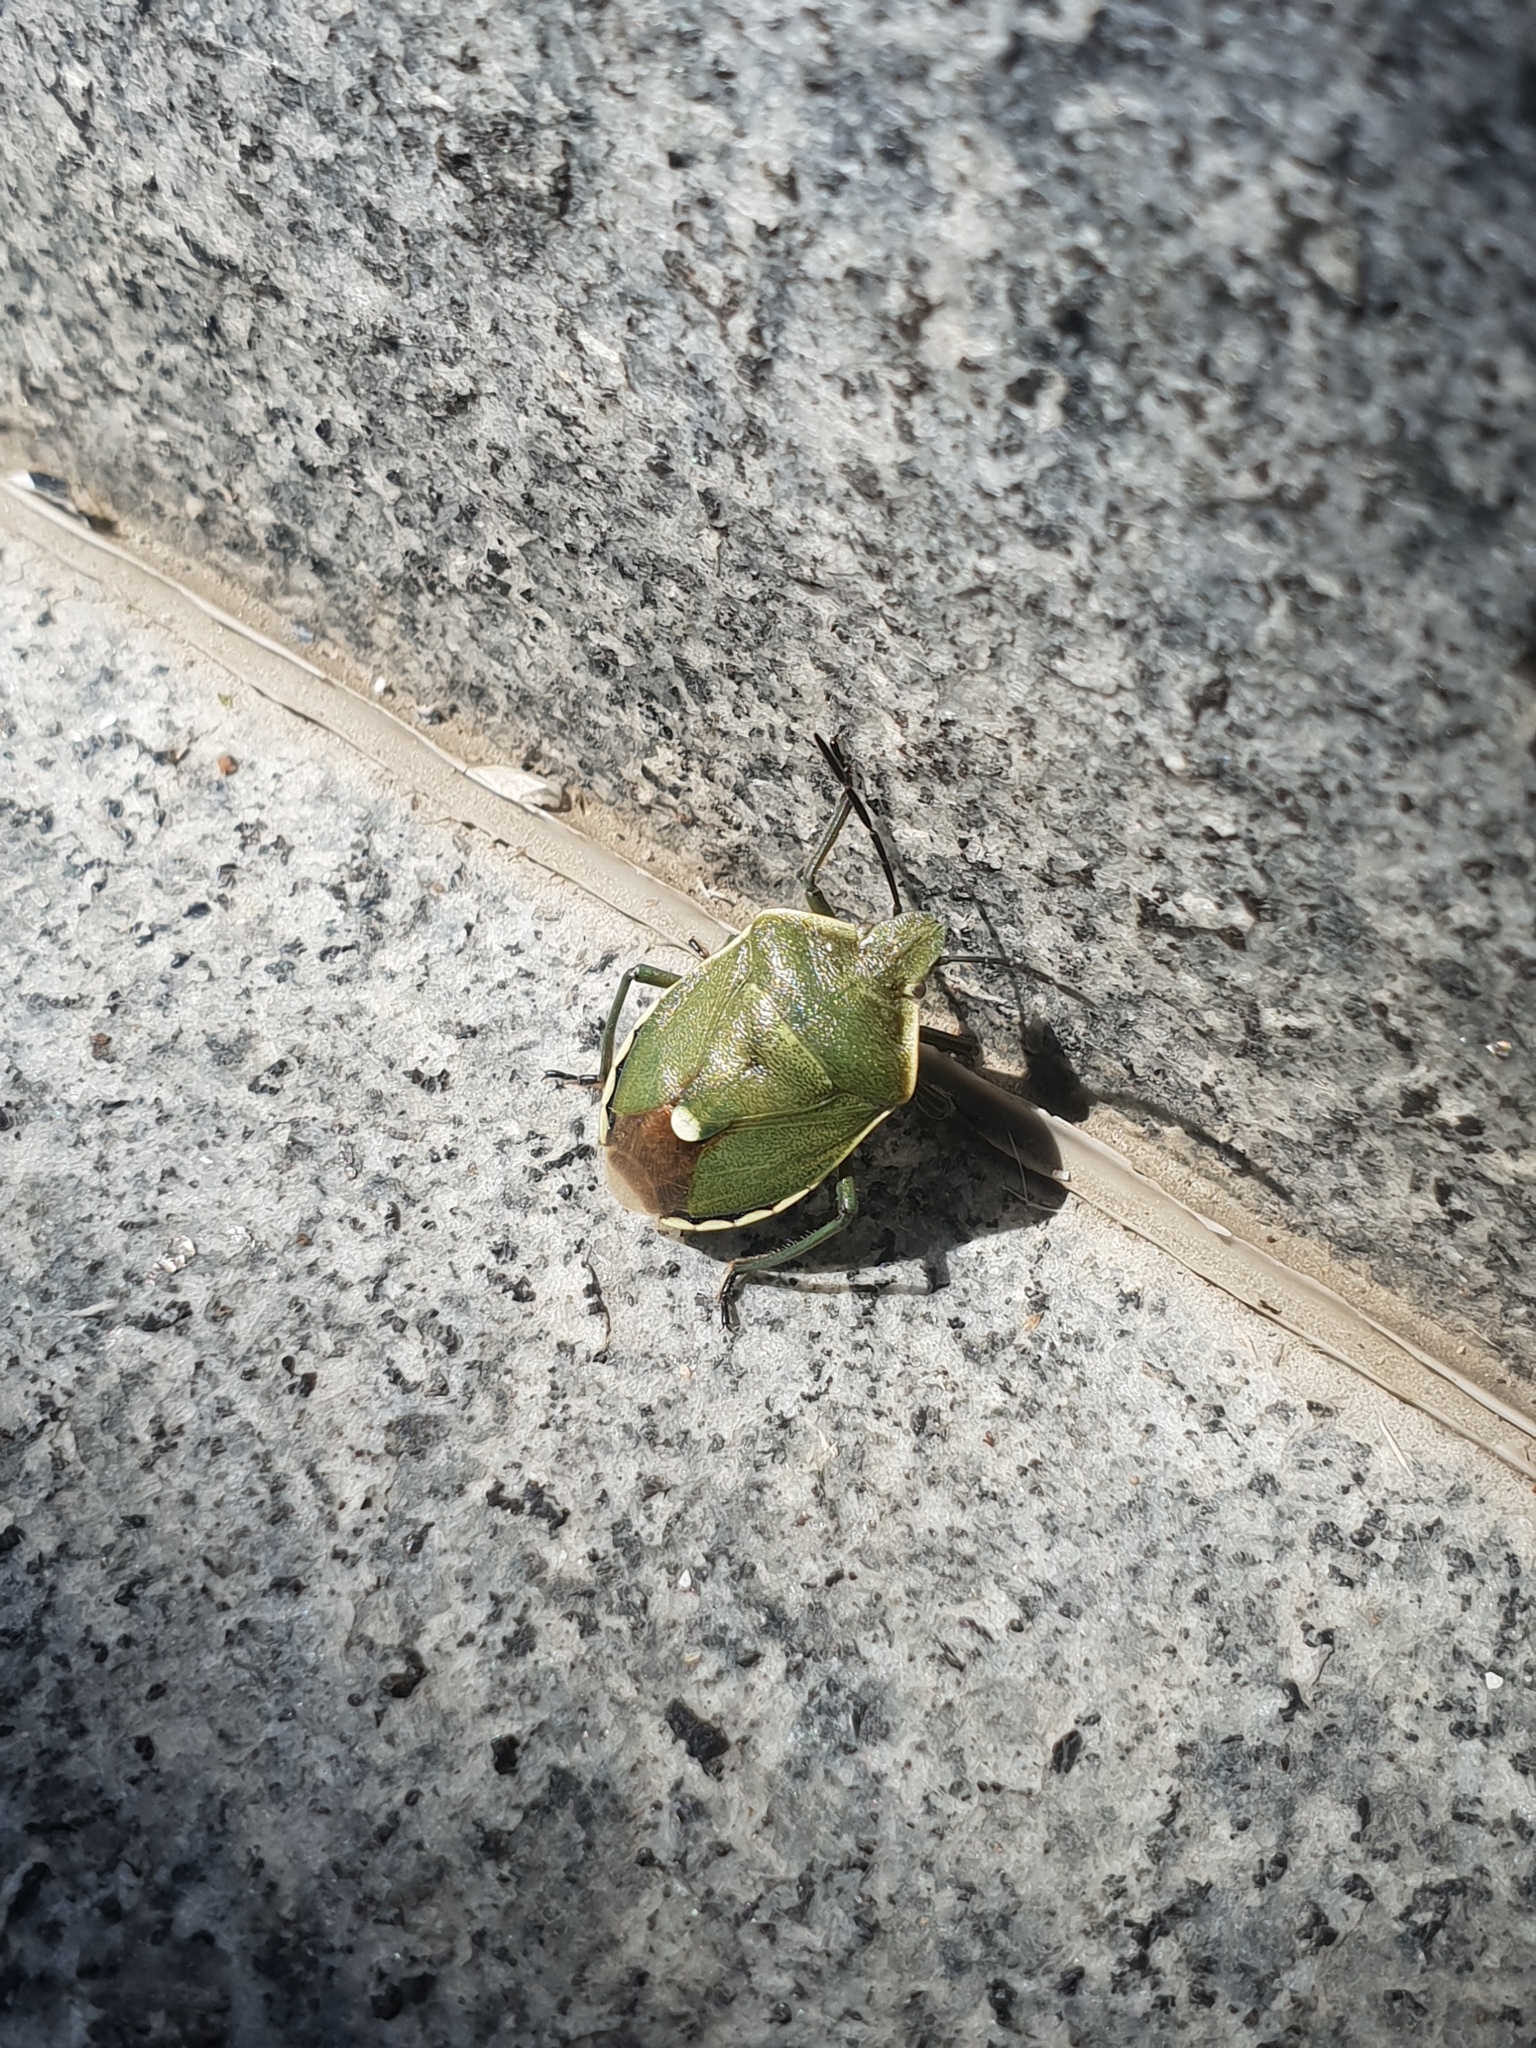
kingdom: Animalia
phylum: Arthropoda
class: Insecta
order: Hemiptera
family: Pentatomidae
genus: Chlorochroa
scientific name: Chlorochroa pinicola
